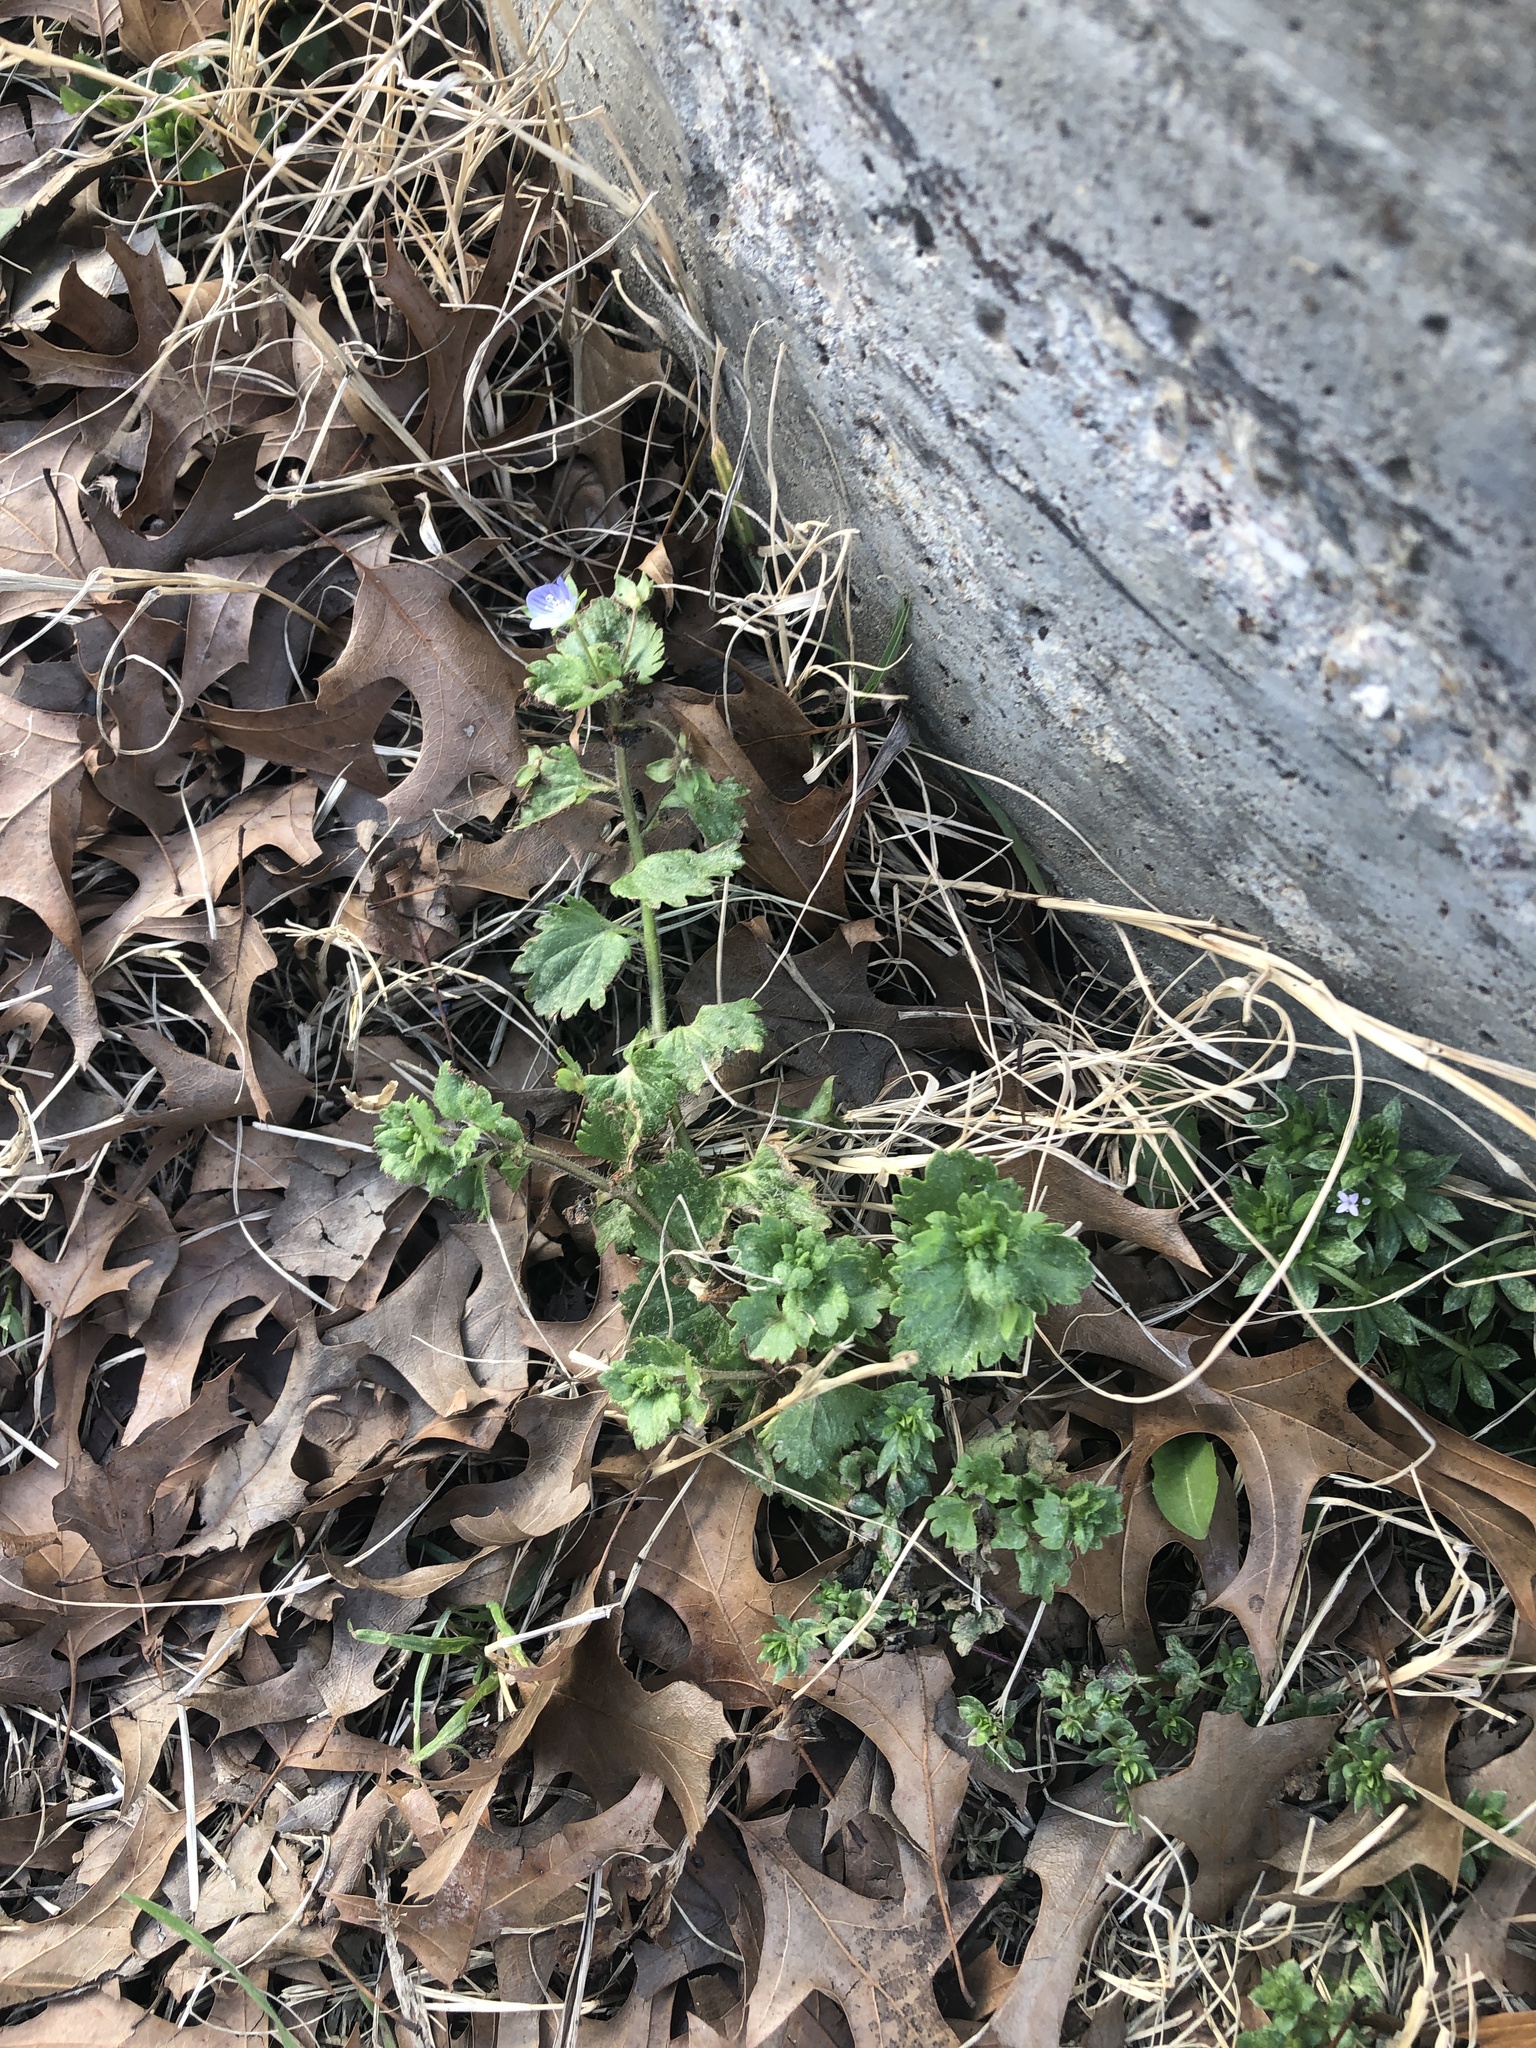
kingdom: Plantae
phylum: Tracheophyta
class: Magnoliopsida
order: Lamiales
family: Plantaginaceae
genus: Veronica
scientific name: Veronica persica
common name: Common field-speedwell
